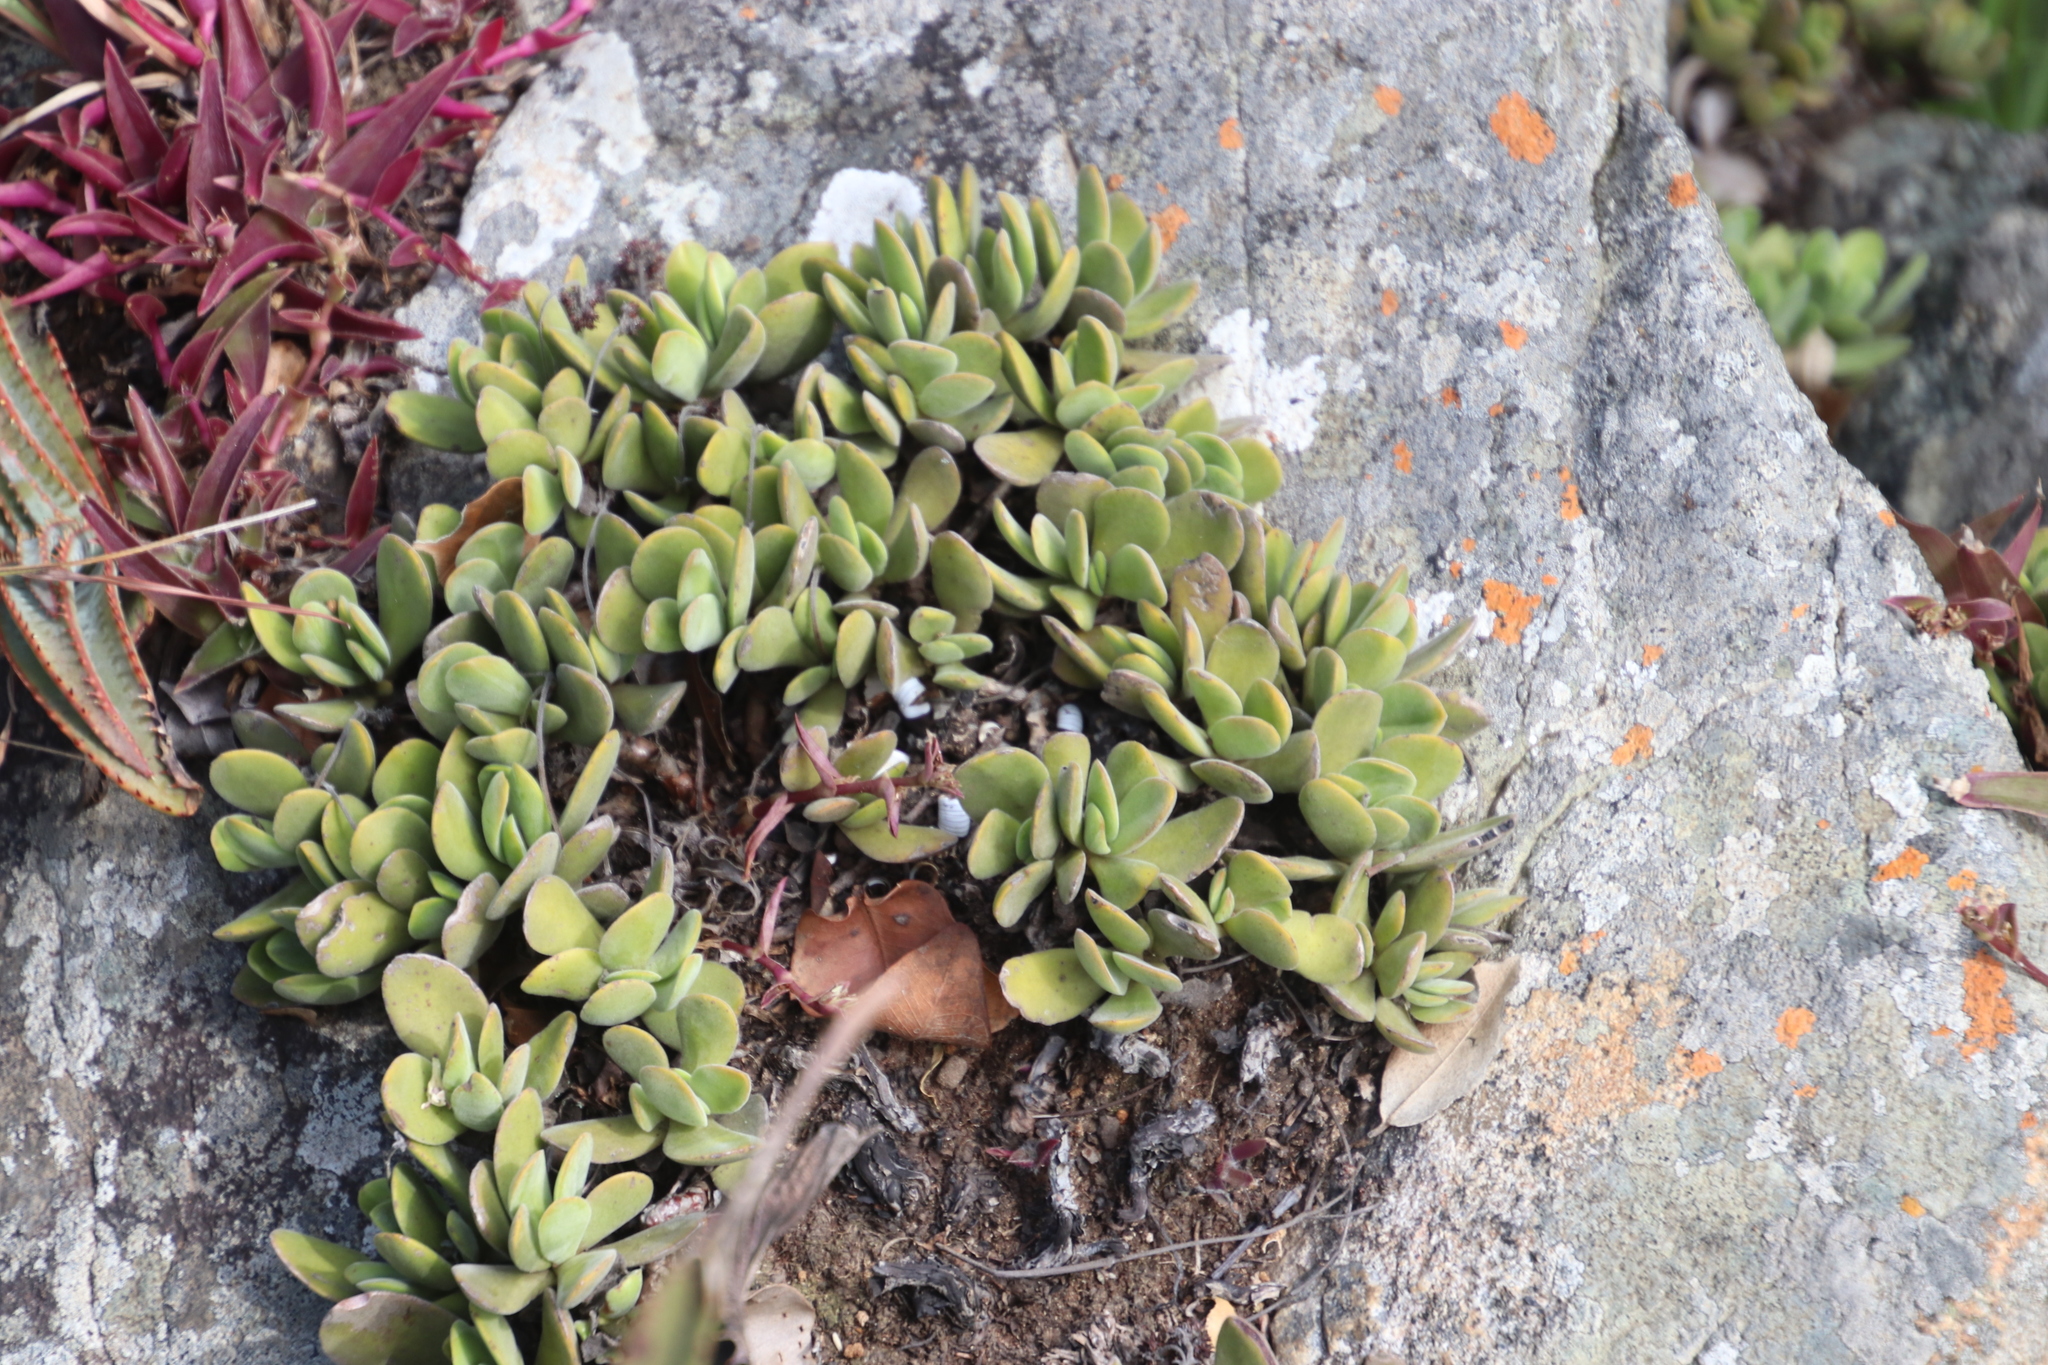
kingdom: Plantae
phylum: Tracheophyta
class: Magnoliopsida
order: Saxifragales
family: Crassulaceae
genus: Crassula
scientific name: Crassula globularioides
